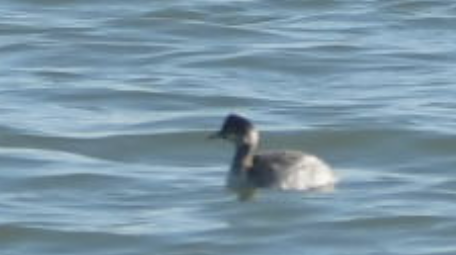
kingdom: Animalia
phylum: Chordata
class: Aves
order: Podicipediformes
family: Podicipedidae
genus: Podiceps
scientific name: Podiceps nigricollis
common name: Black-necked grebe
